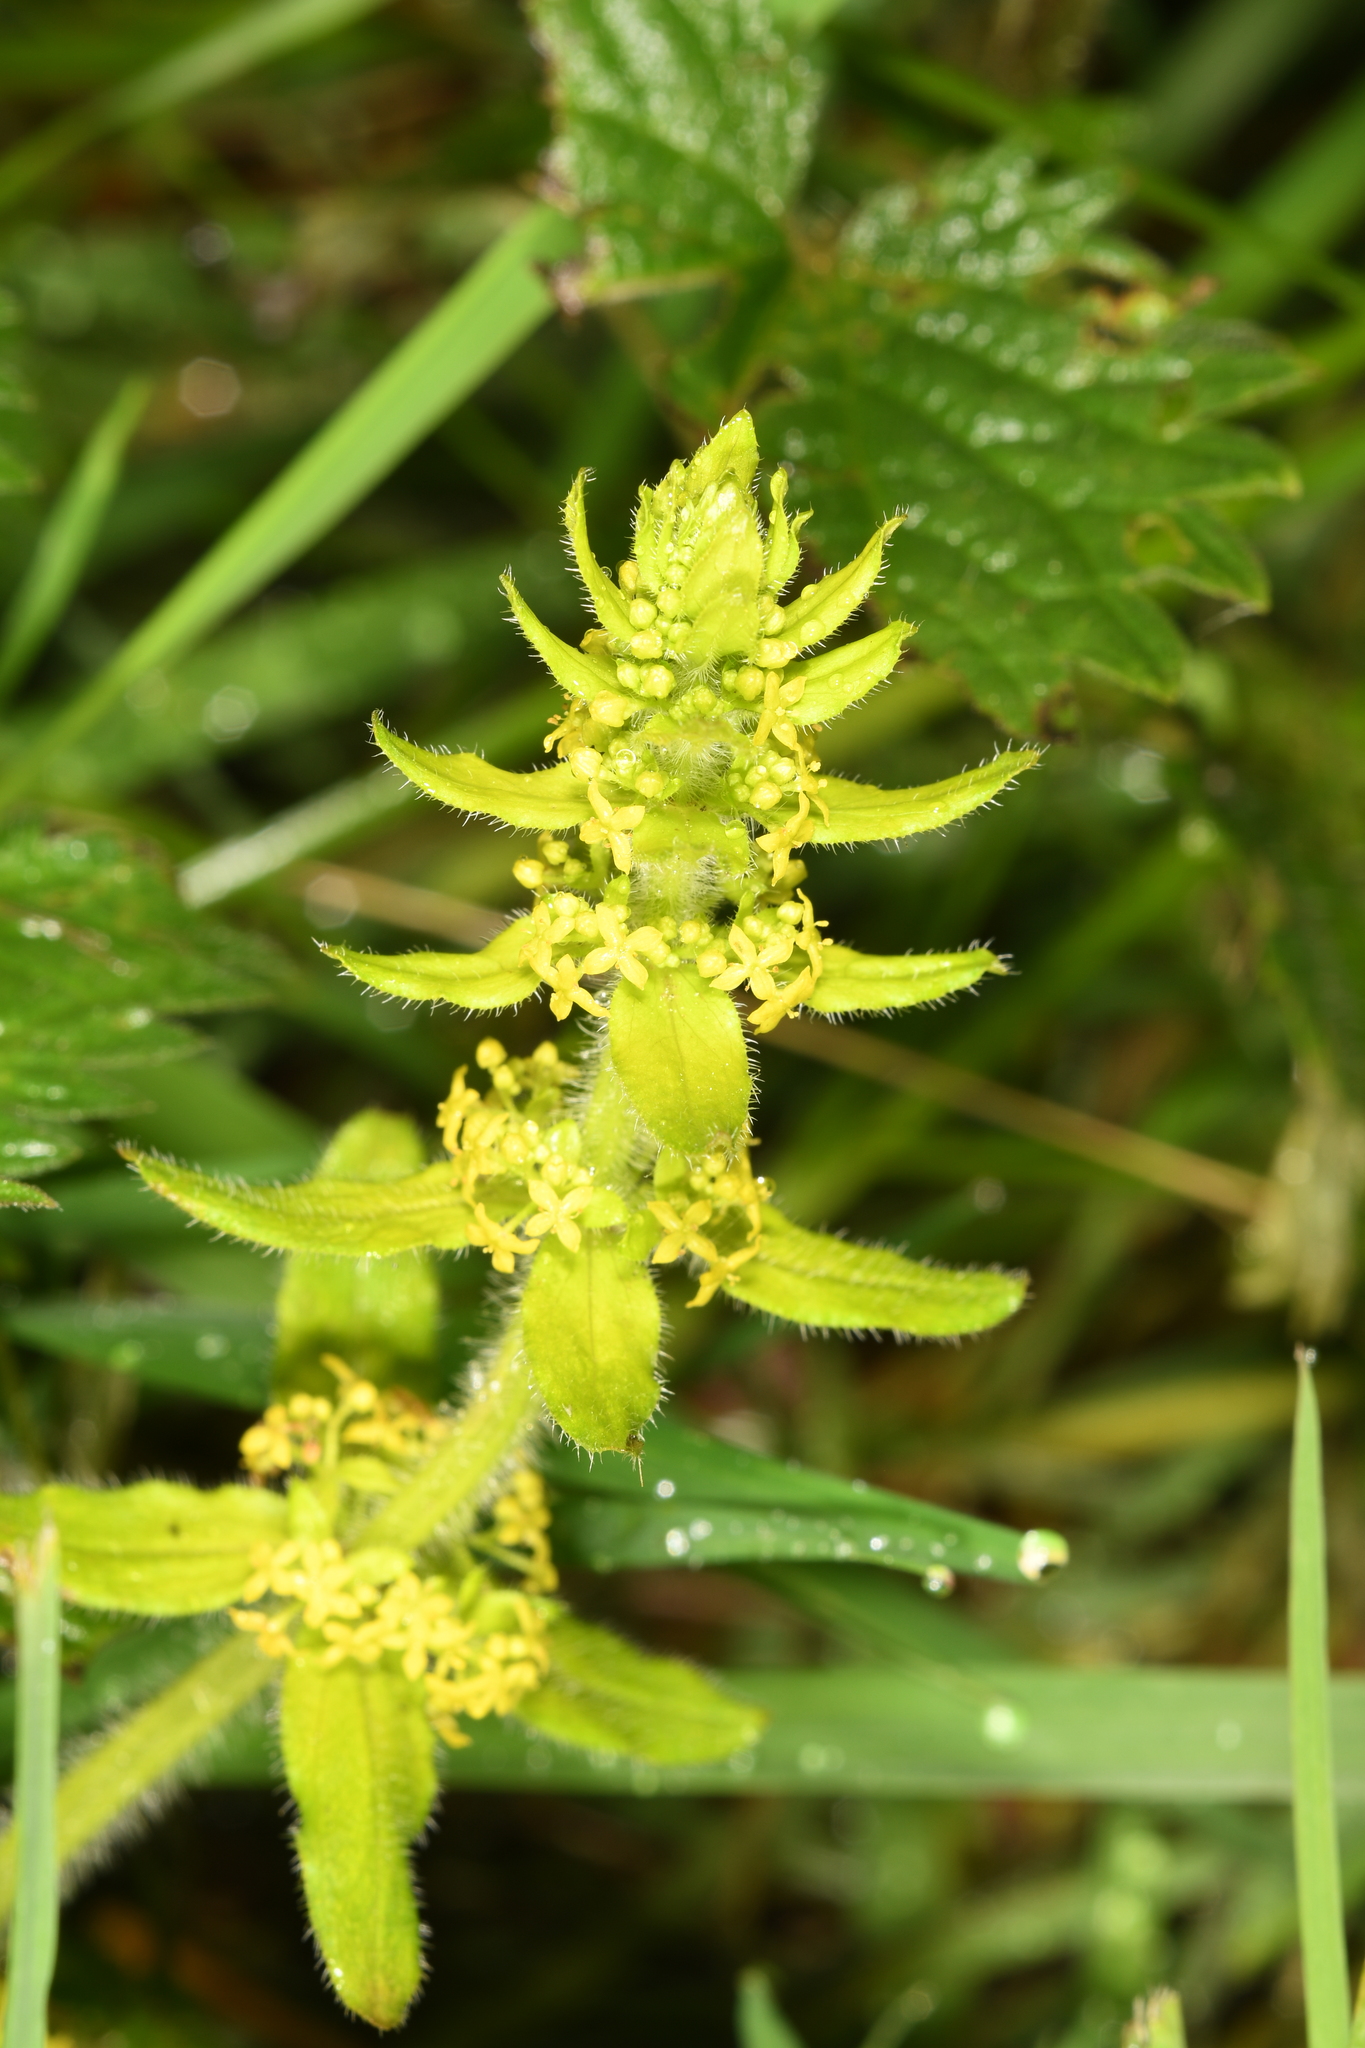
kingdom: Plantae
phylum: Tracheophyta
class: Magnoliopsida
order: Gentianales
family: Rubiaceae
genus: Cruciata
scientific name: Cruciata laevipes
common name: Crosswort
